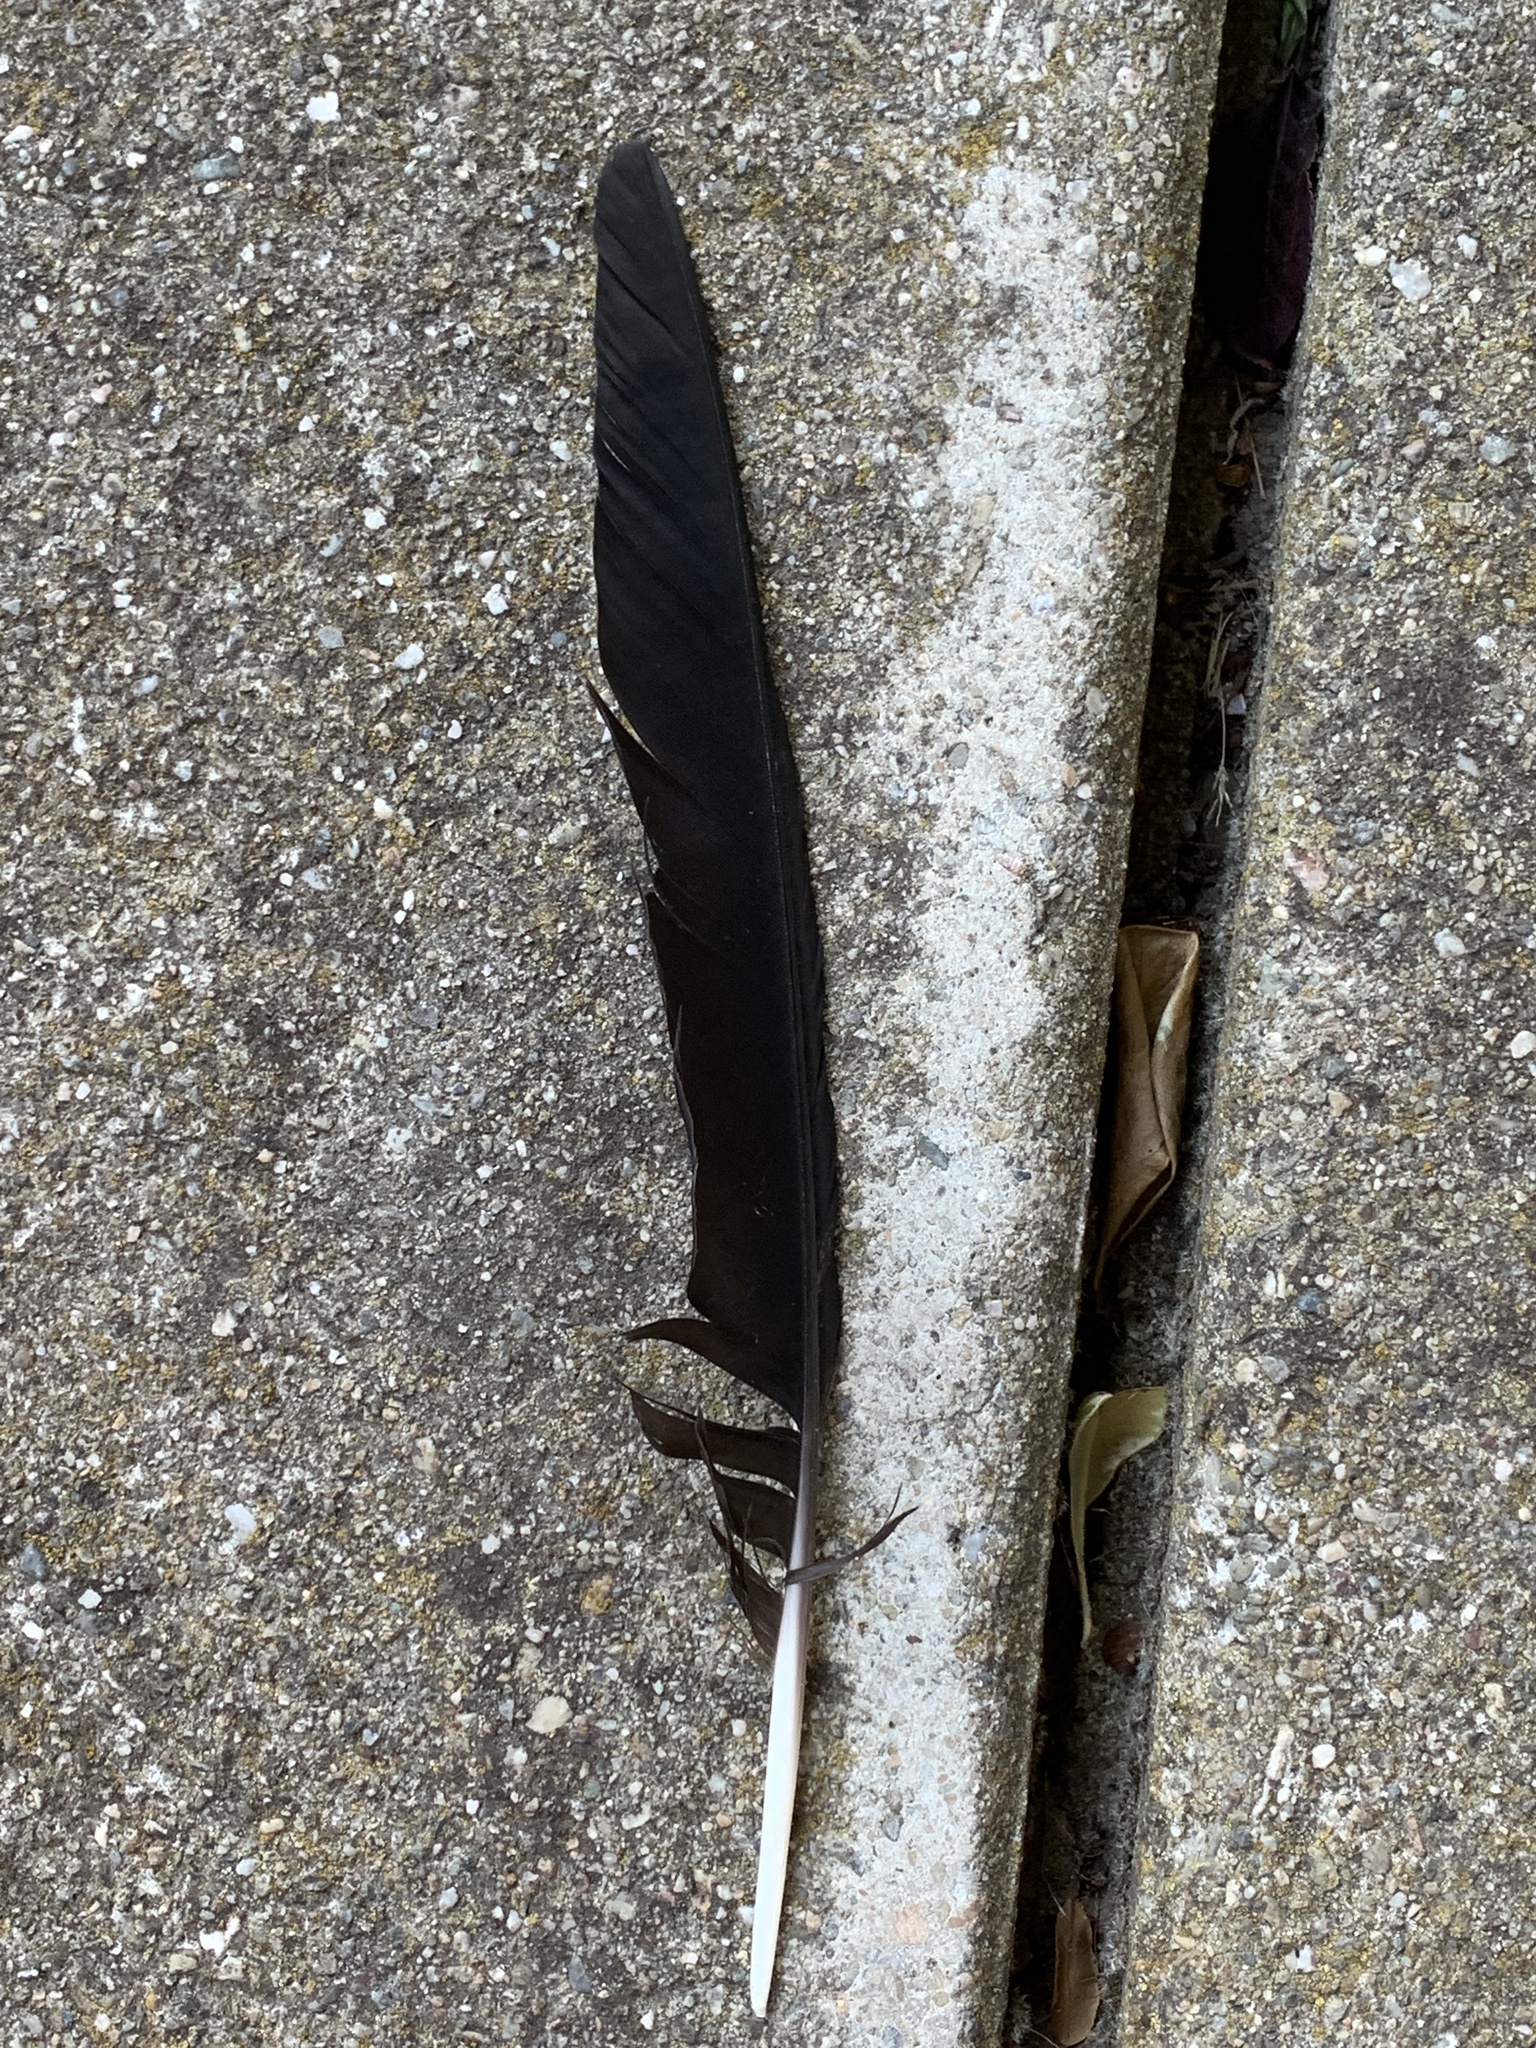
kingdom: Animalia
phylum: Chordata
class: Aves
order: Passeriformes
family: Corvidae
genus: Corvus
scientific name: Corvus brachyrhynchos
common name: American crow
